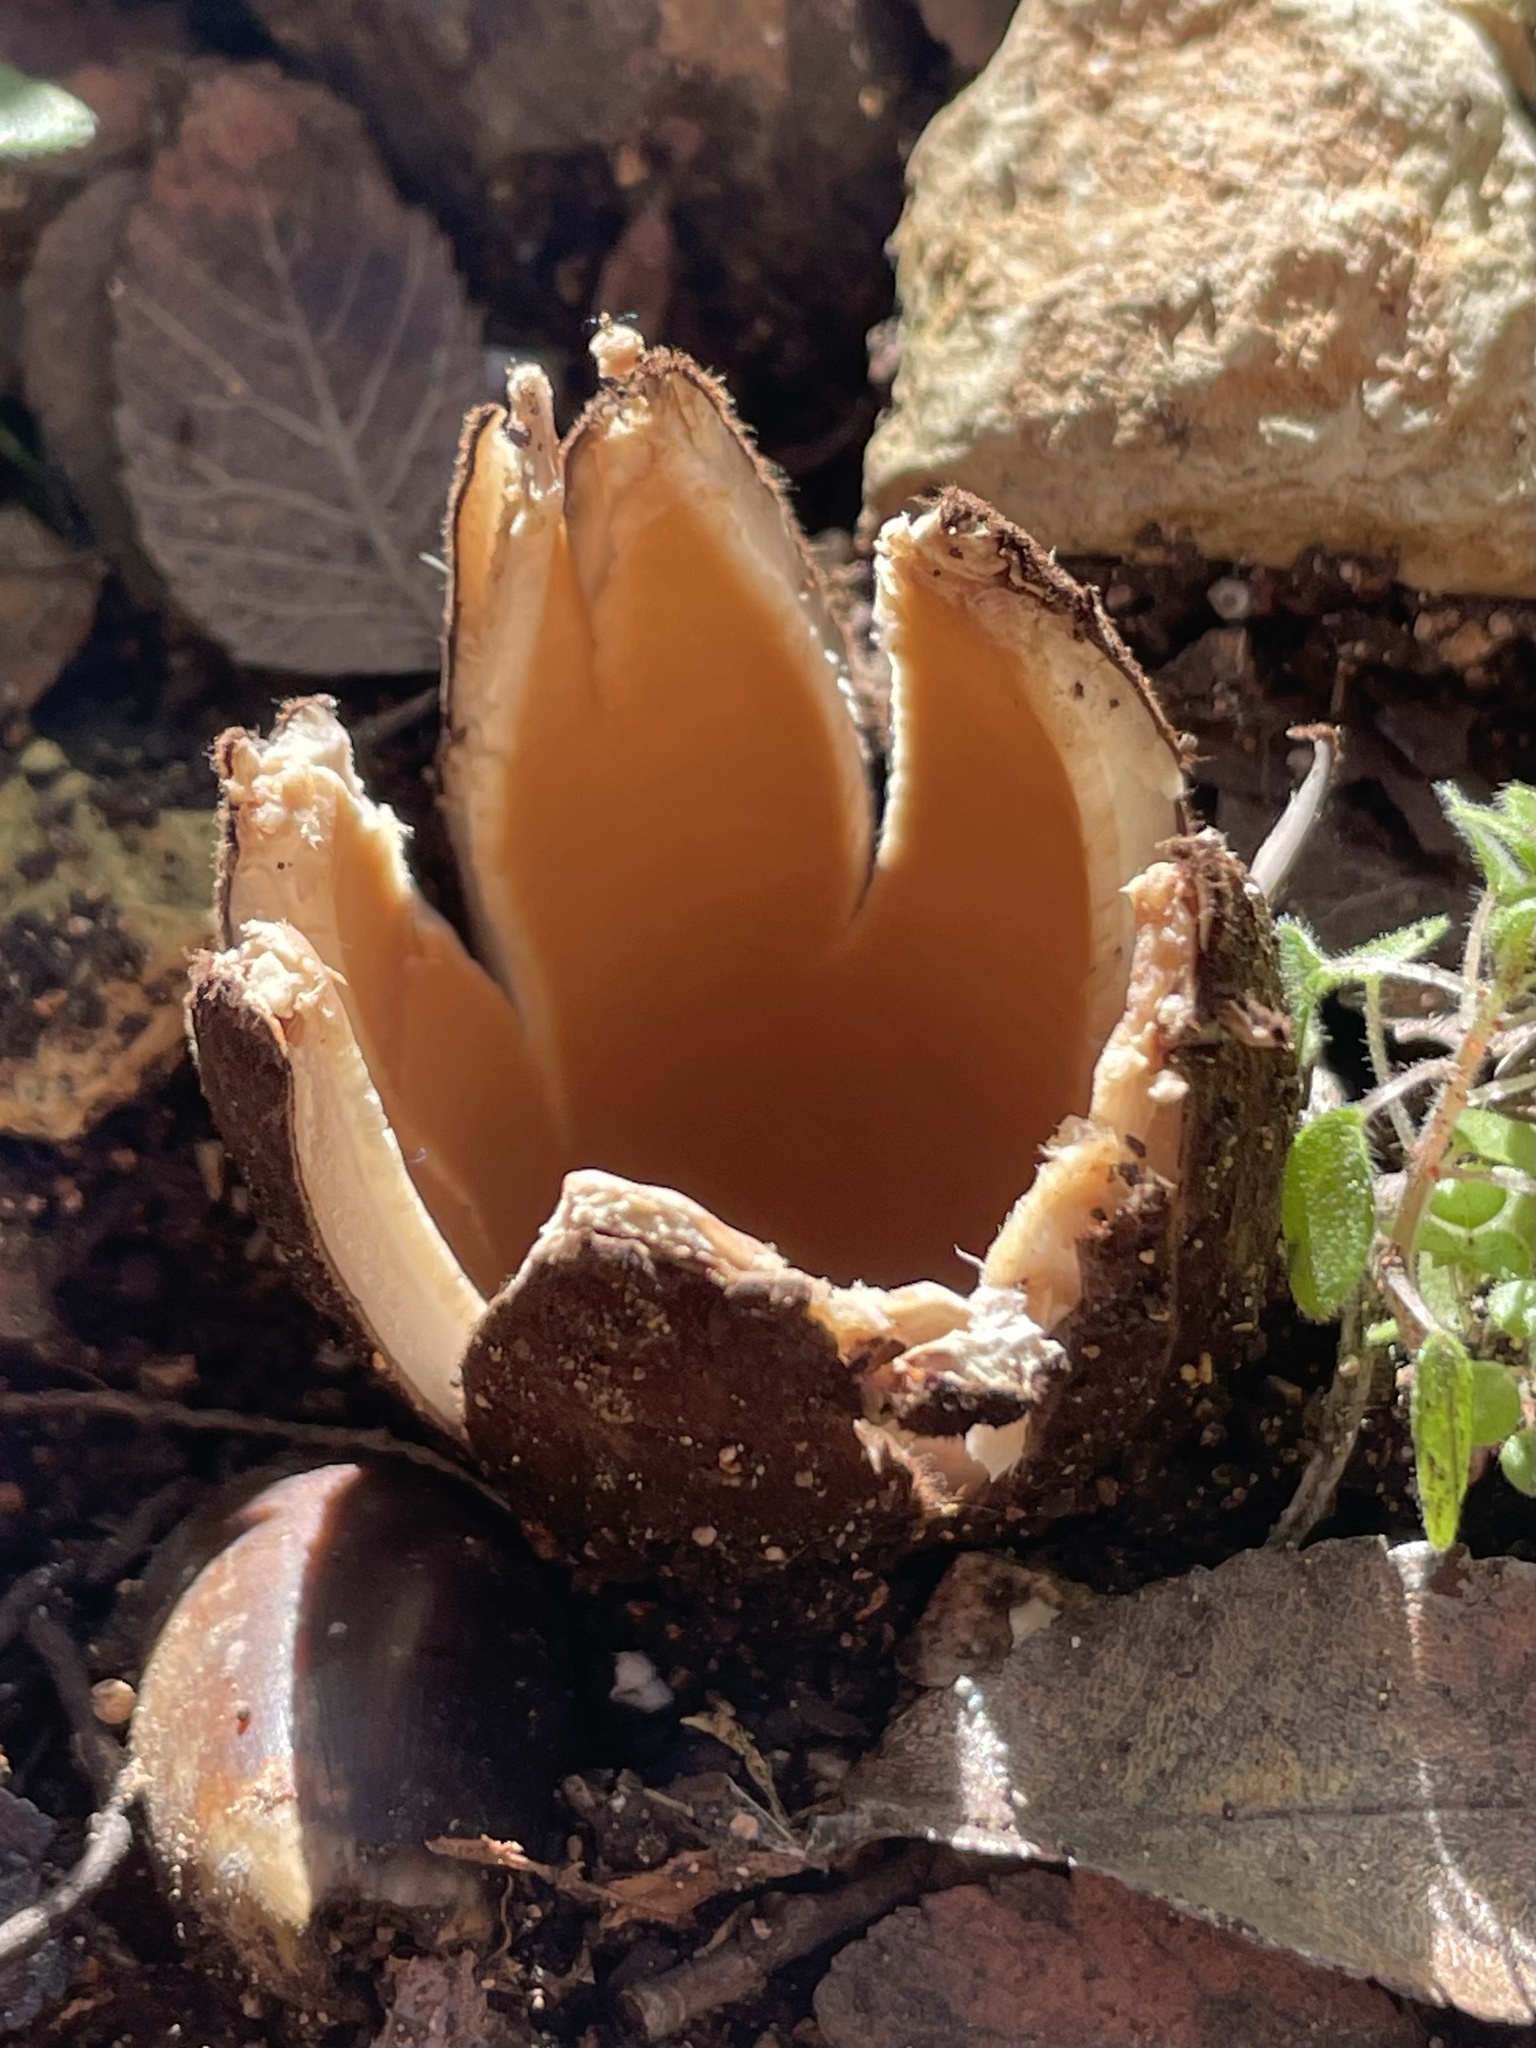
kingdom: Fungi
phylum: Ascomycota
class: Pezizomycetes
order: Pezizales
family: Chorioactidaceae
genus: Chorioactis
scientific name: Chorioactis geaster
